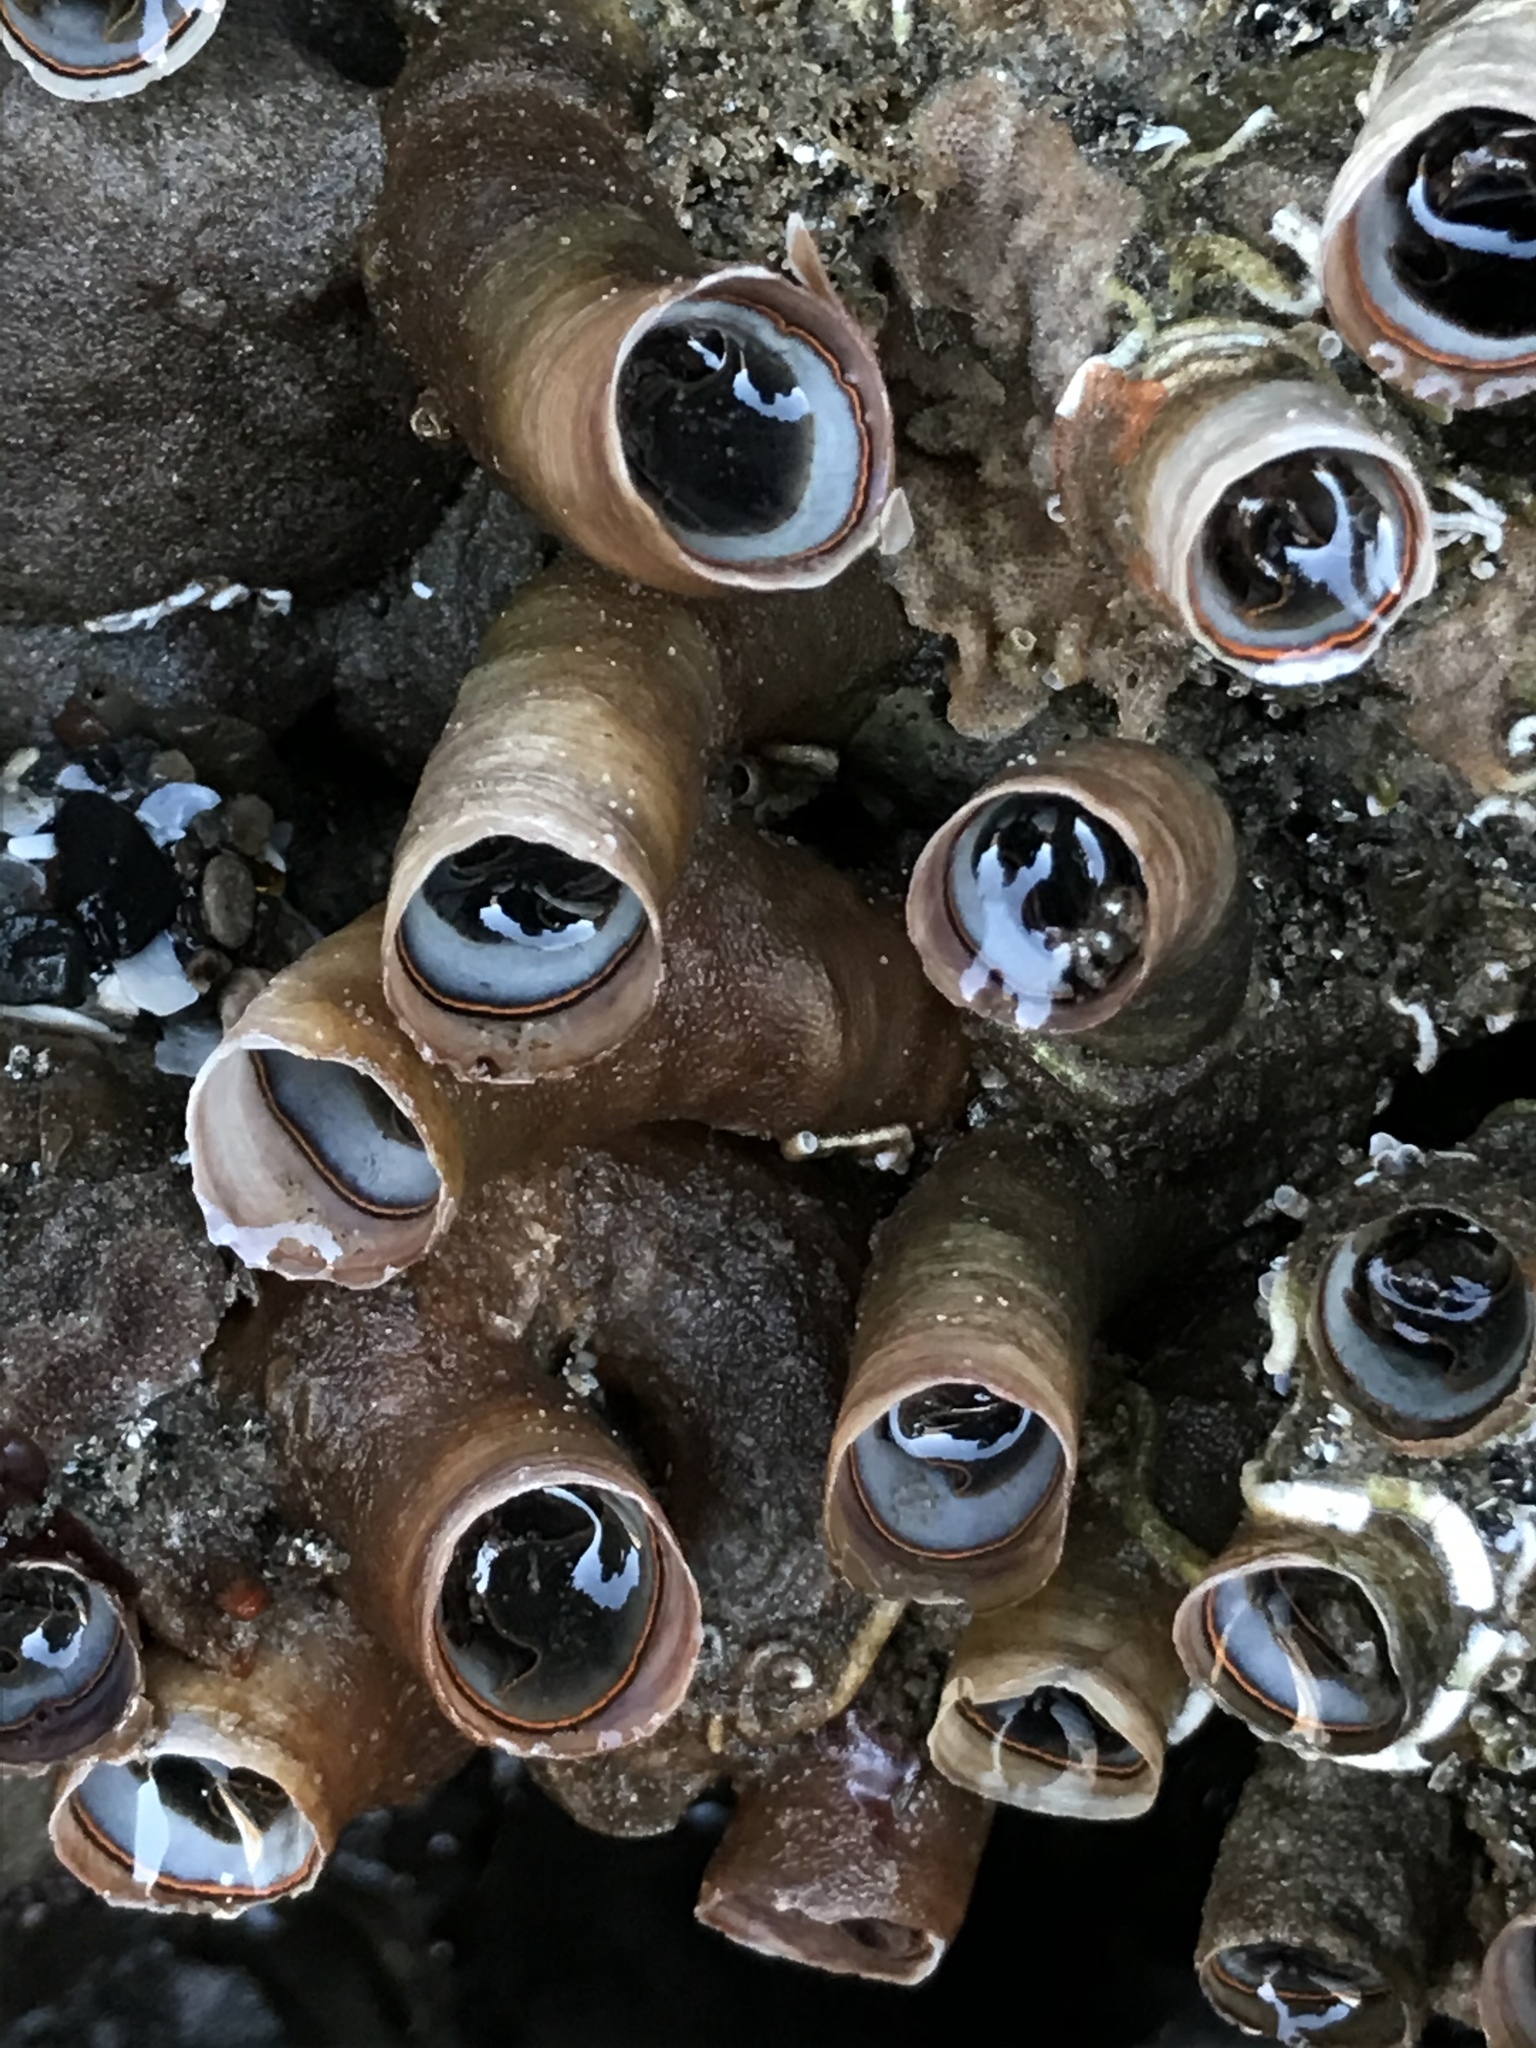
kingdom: Animalia
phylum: Mollusca
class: Gastropoda
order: Littorinimorpha
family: Vermetidae
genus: Thylacodes
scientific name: Thylacodes squamigerus
